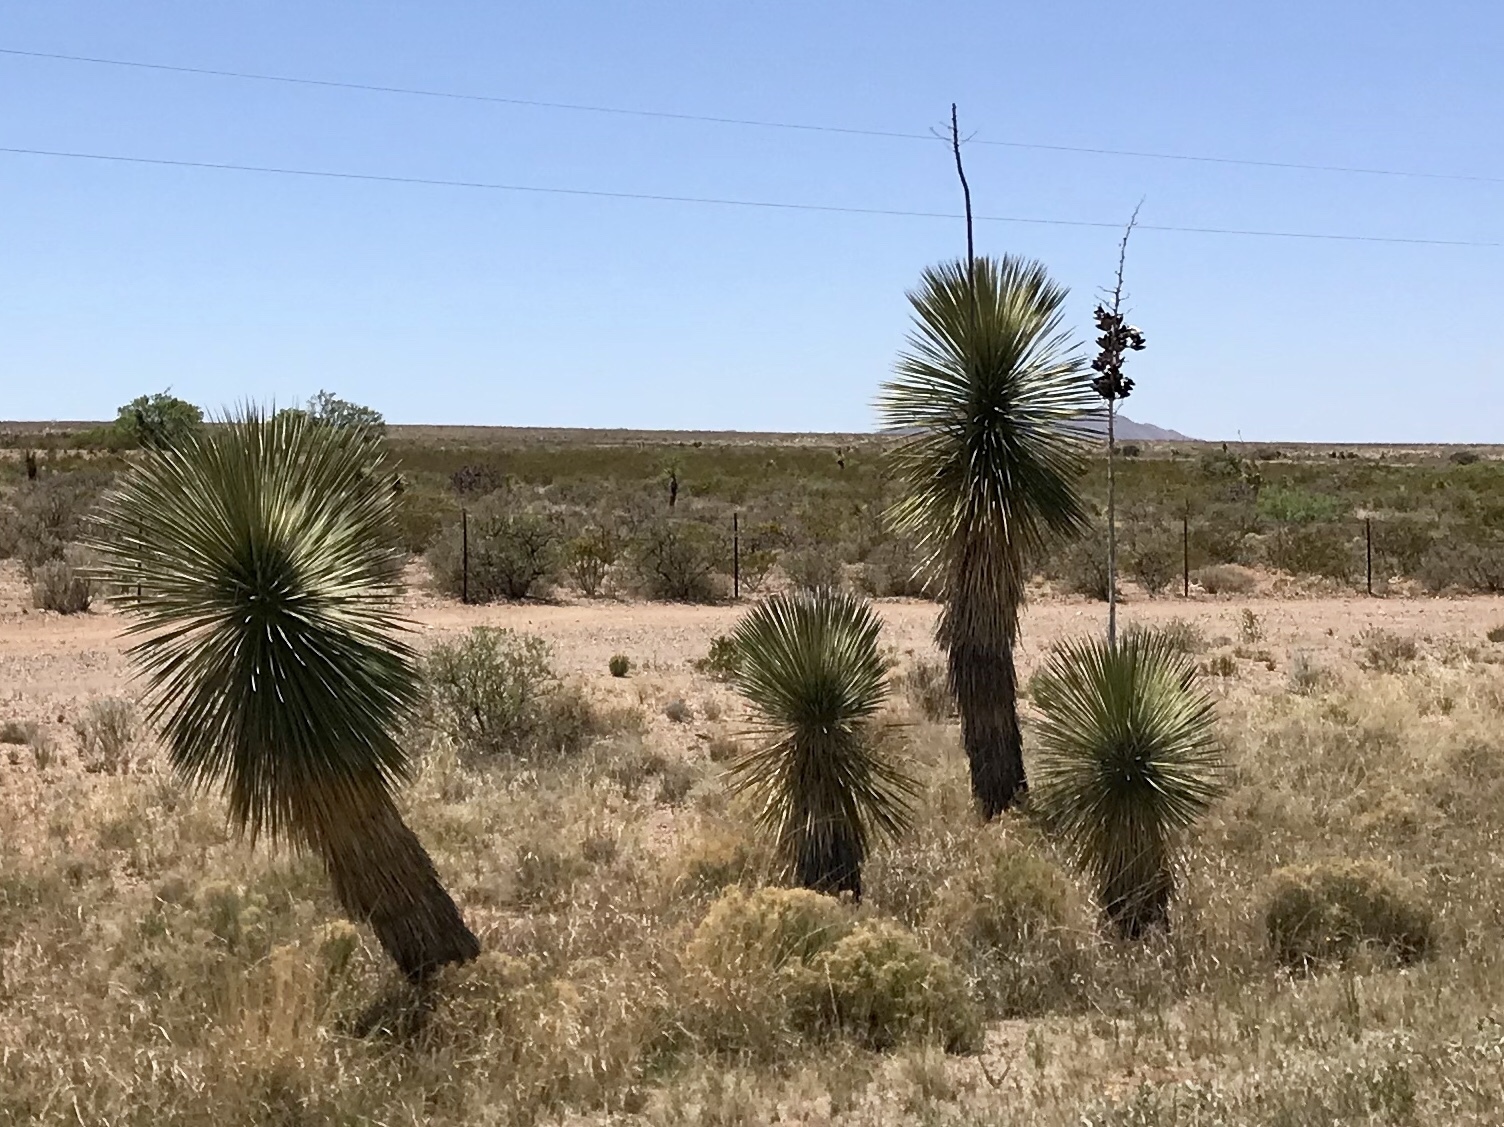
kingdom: Plantae
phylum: Tracheophyta
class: Liliopsida
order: Asparagales
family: Asparagaceae
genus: Yucca
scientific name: Yucca elata
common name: Palmella
